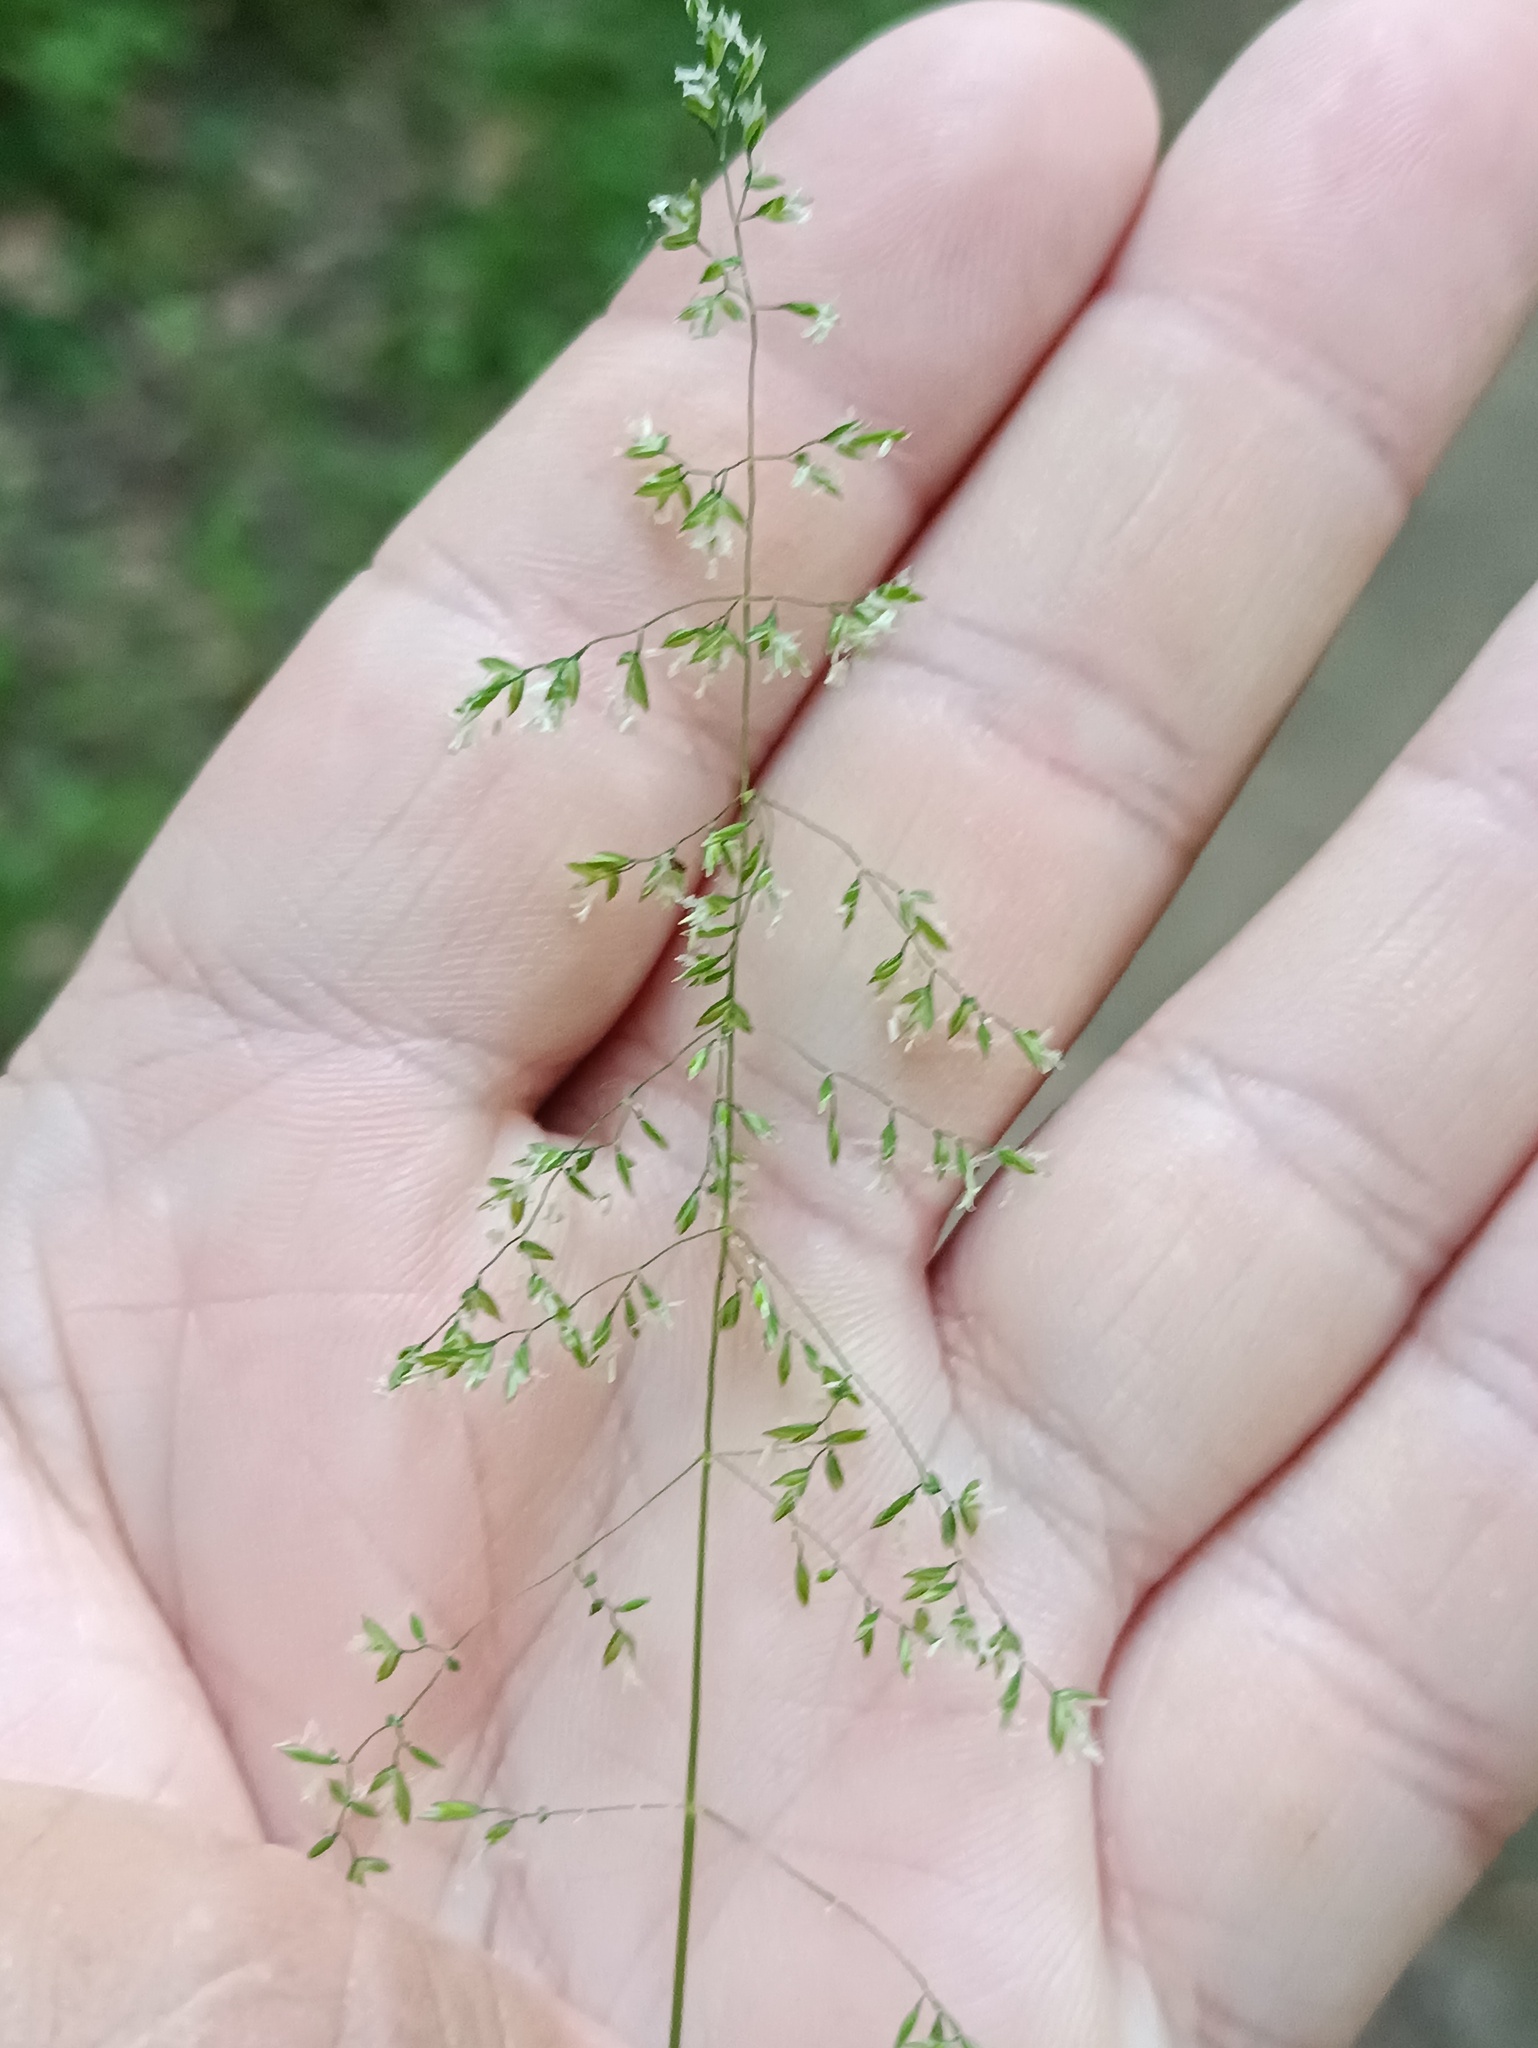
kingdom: Plantae
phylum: Tracheophyta
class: Liliopsida
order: Poales
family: Poaceae
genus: Poa
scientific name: Poa trivialis
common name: Rough bluegrass
